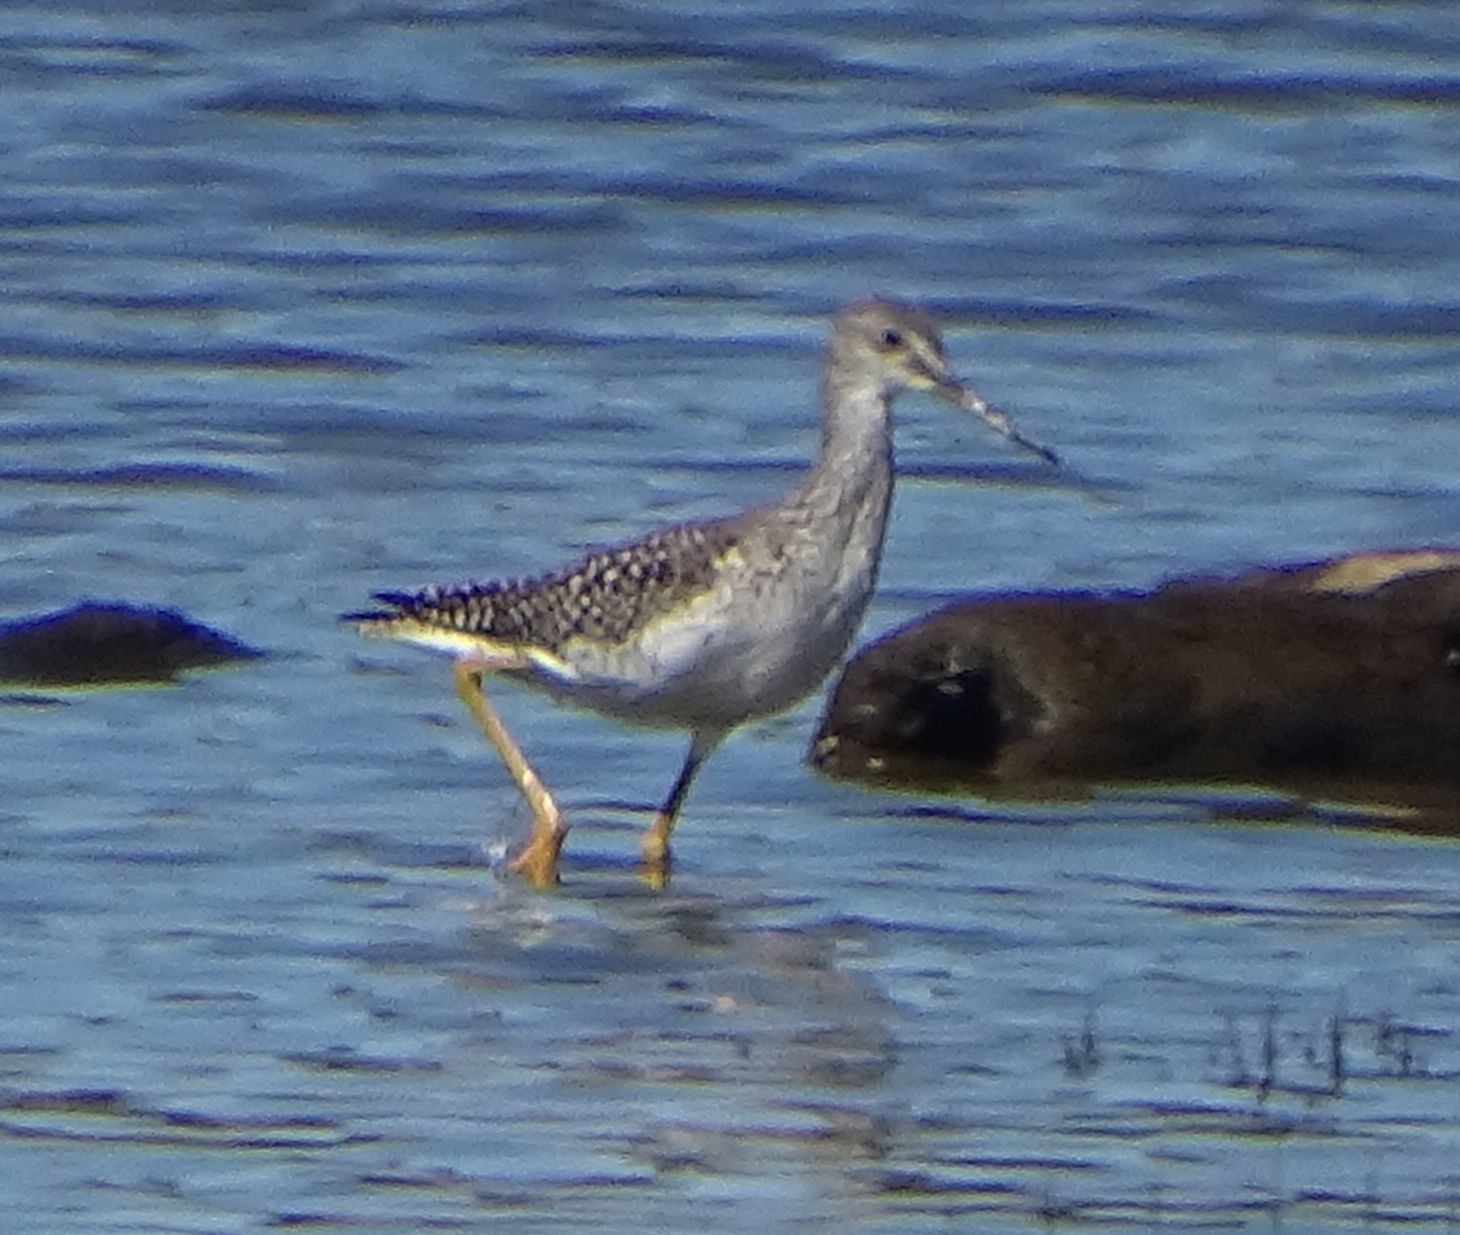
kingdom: Animalia
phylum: Chordata
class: Aves
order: Charadriiformes
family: Scolopacidae
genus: Tringa
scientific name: Tringa melanoleuca
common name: Greater yellowlegs
